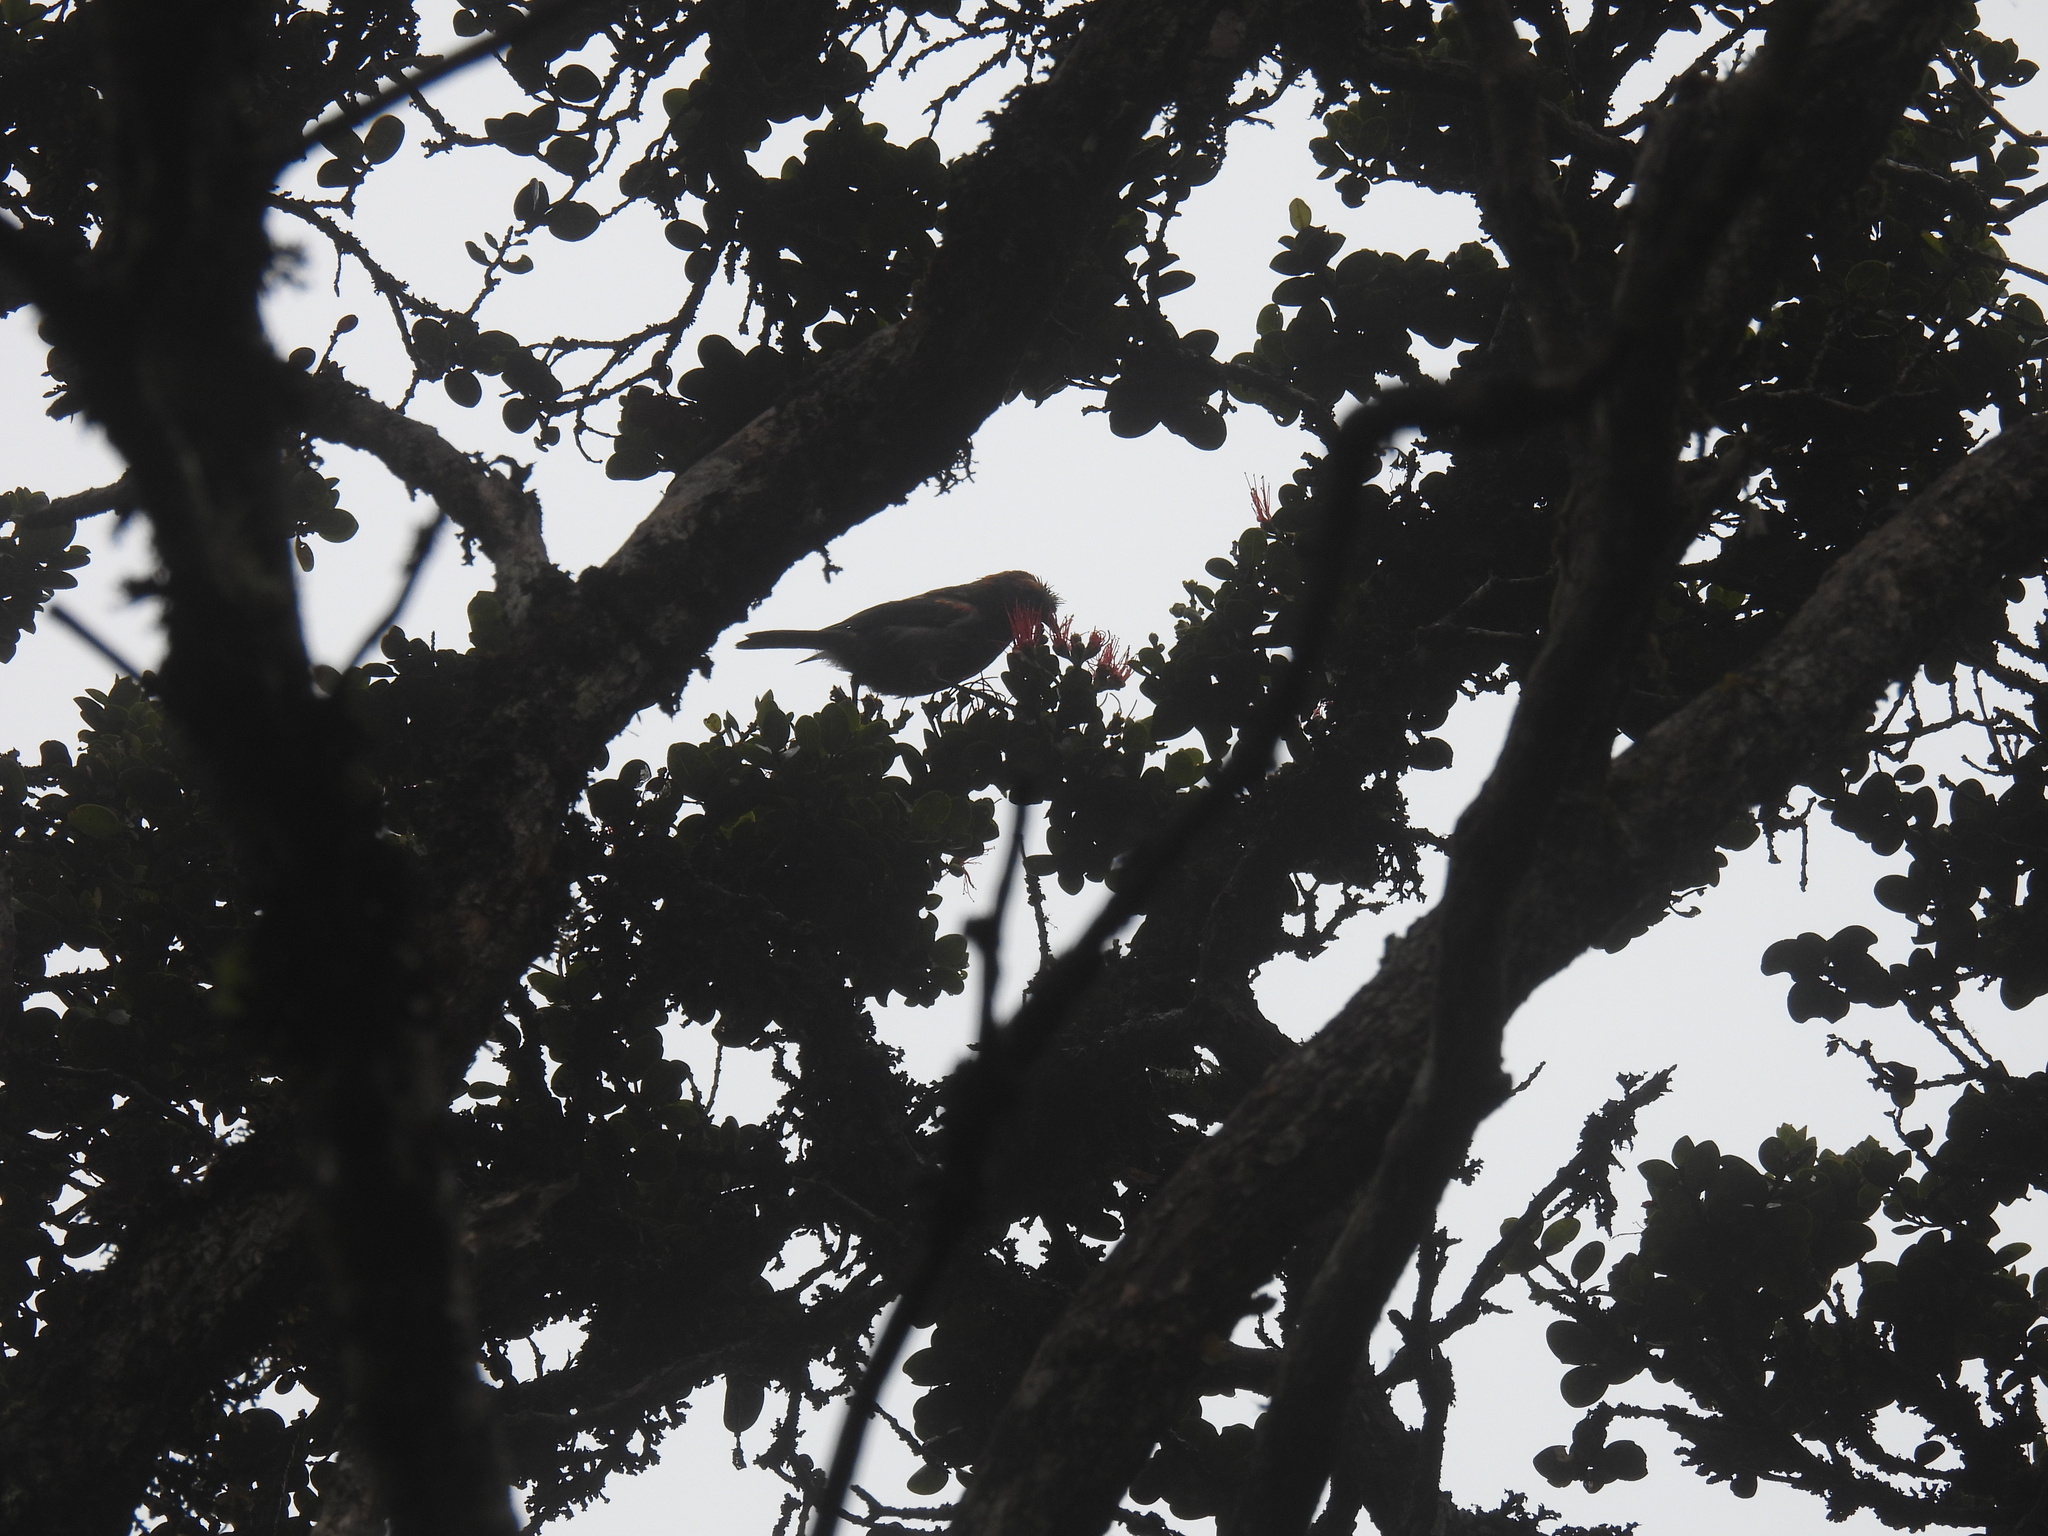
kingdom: Animalia
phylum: Chordata
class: Aves
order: Passeriformes
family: Fringillidae
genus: Palmeria
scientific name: Palmeria dolei
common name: Akohekohe
